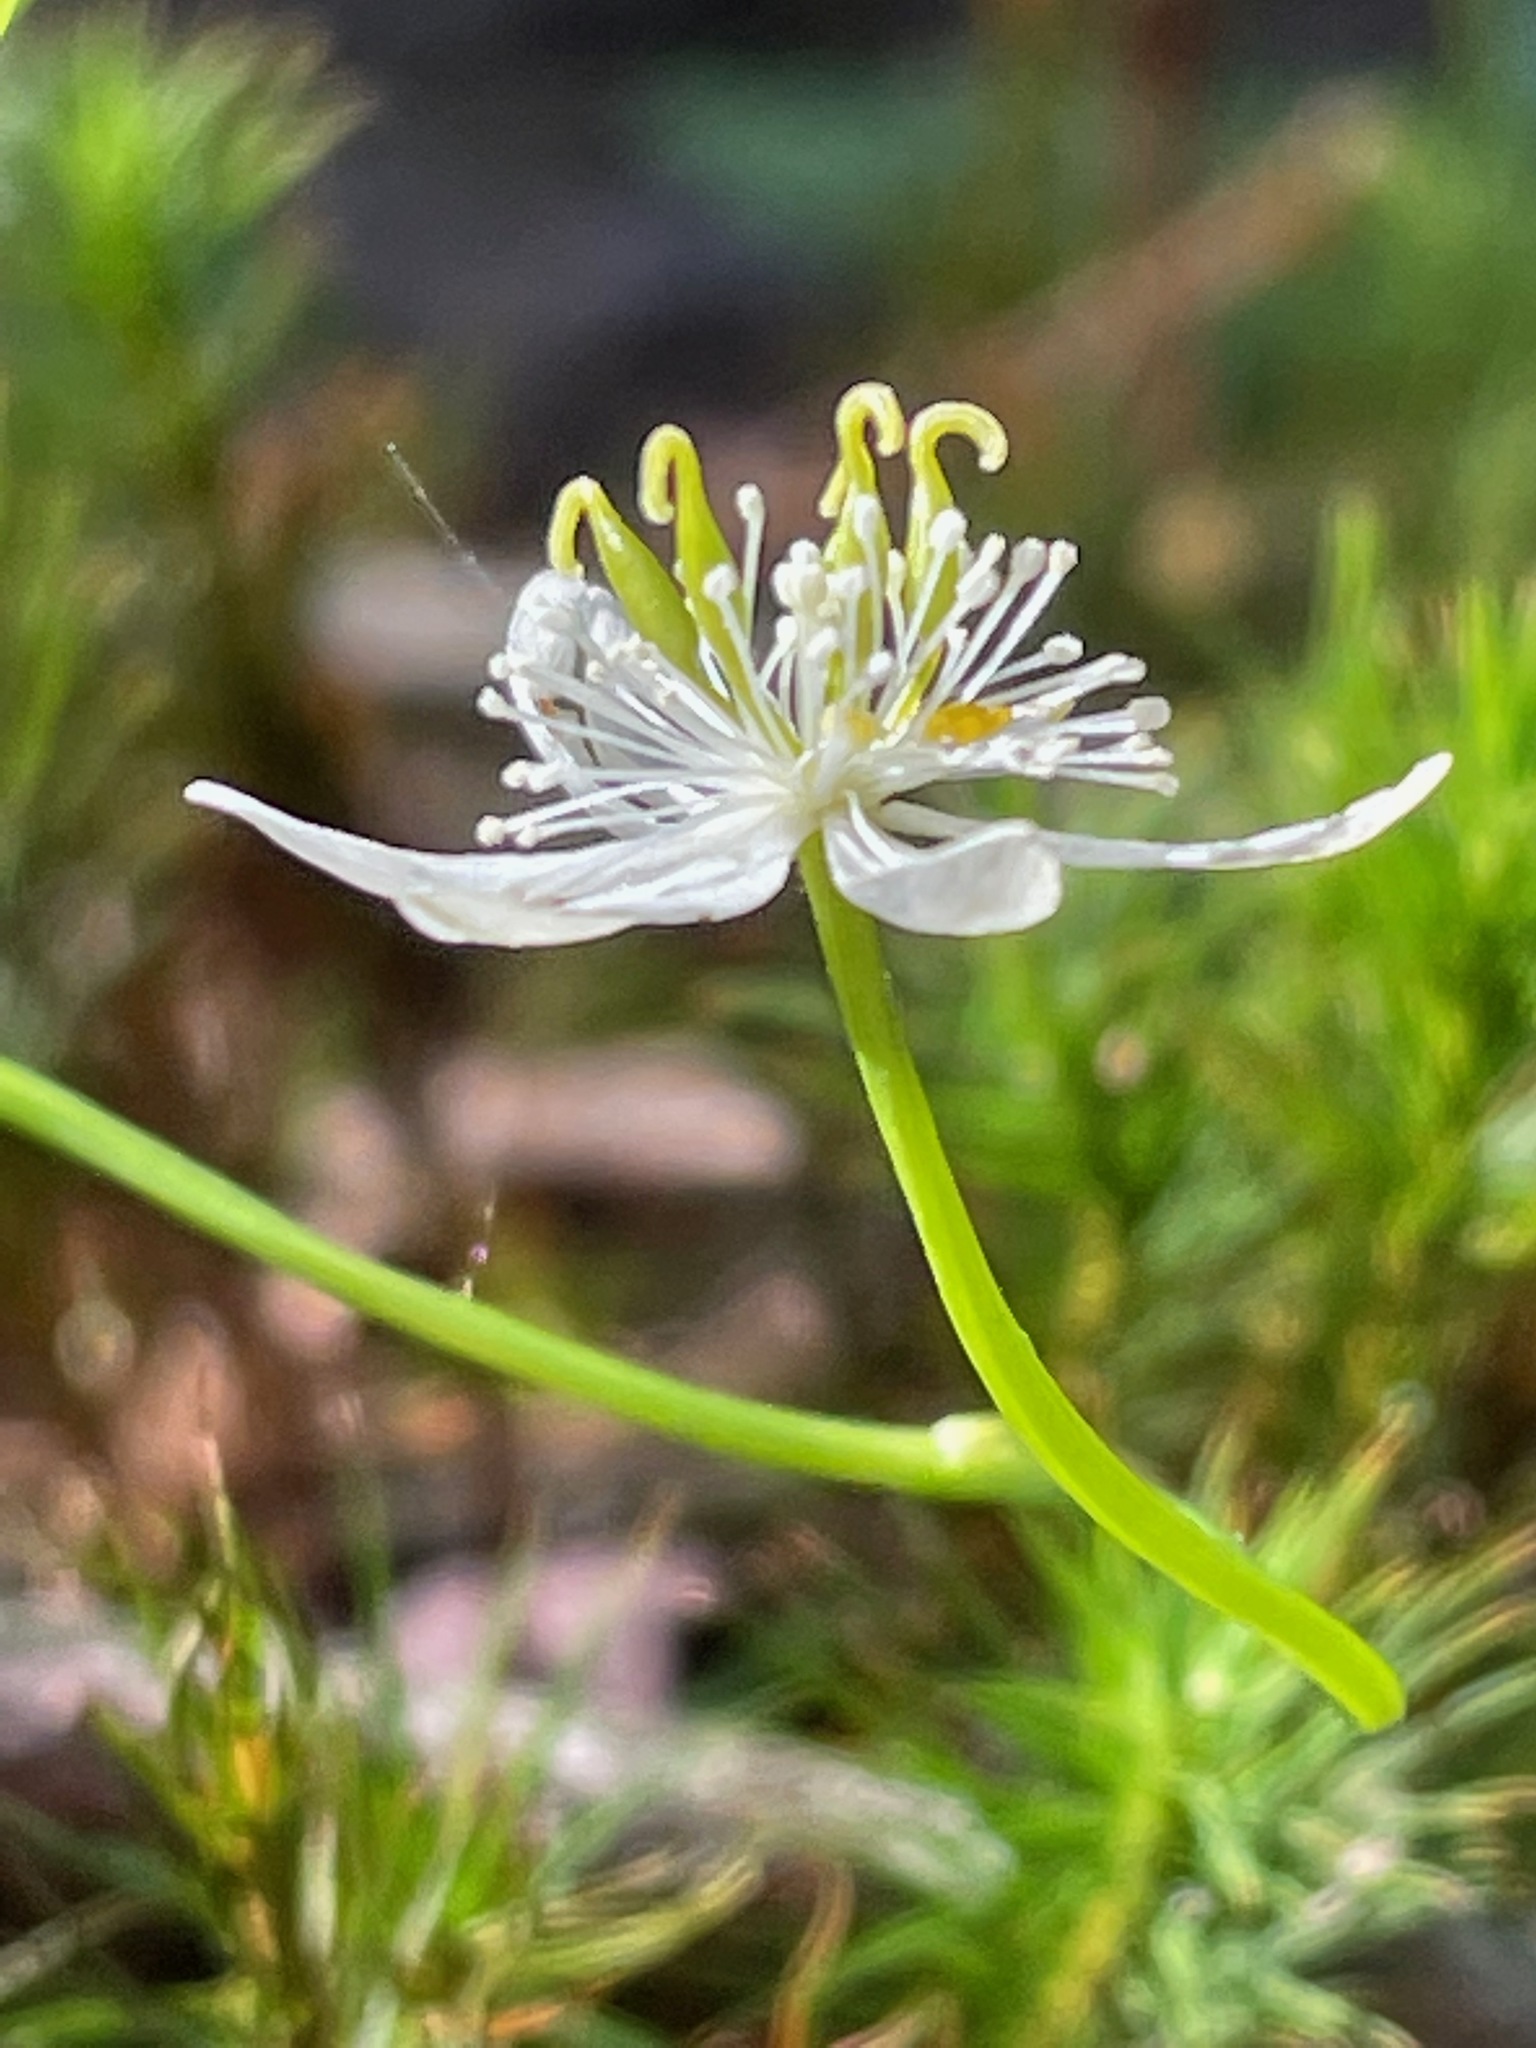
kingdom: Plantae
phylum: Tracheophyta
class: Magnoliopsida
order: Ranunculales
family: Ranunculaceae
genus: Coptis
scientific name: Coptis trifolia
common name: Canker-root
